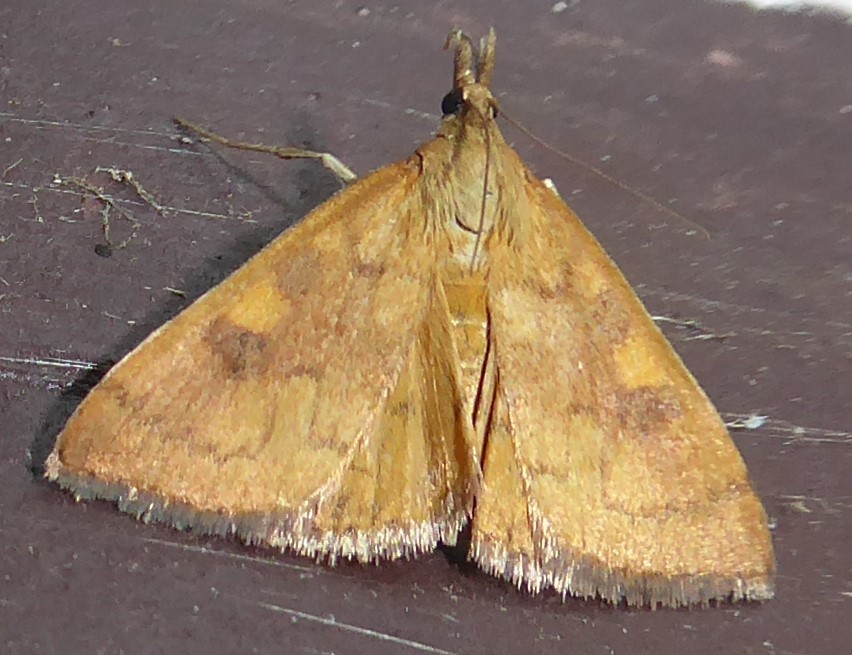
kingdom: Animalia
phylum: Arthropoda
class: Insecta
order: Lepidoptera
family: Crambidae
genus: Udea
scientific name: Udea Mnesictena flavidalis
